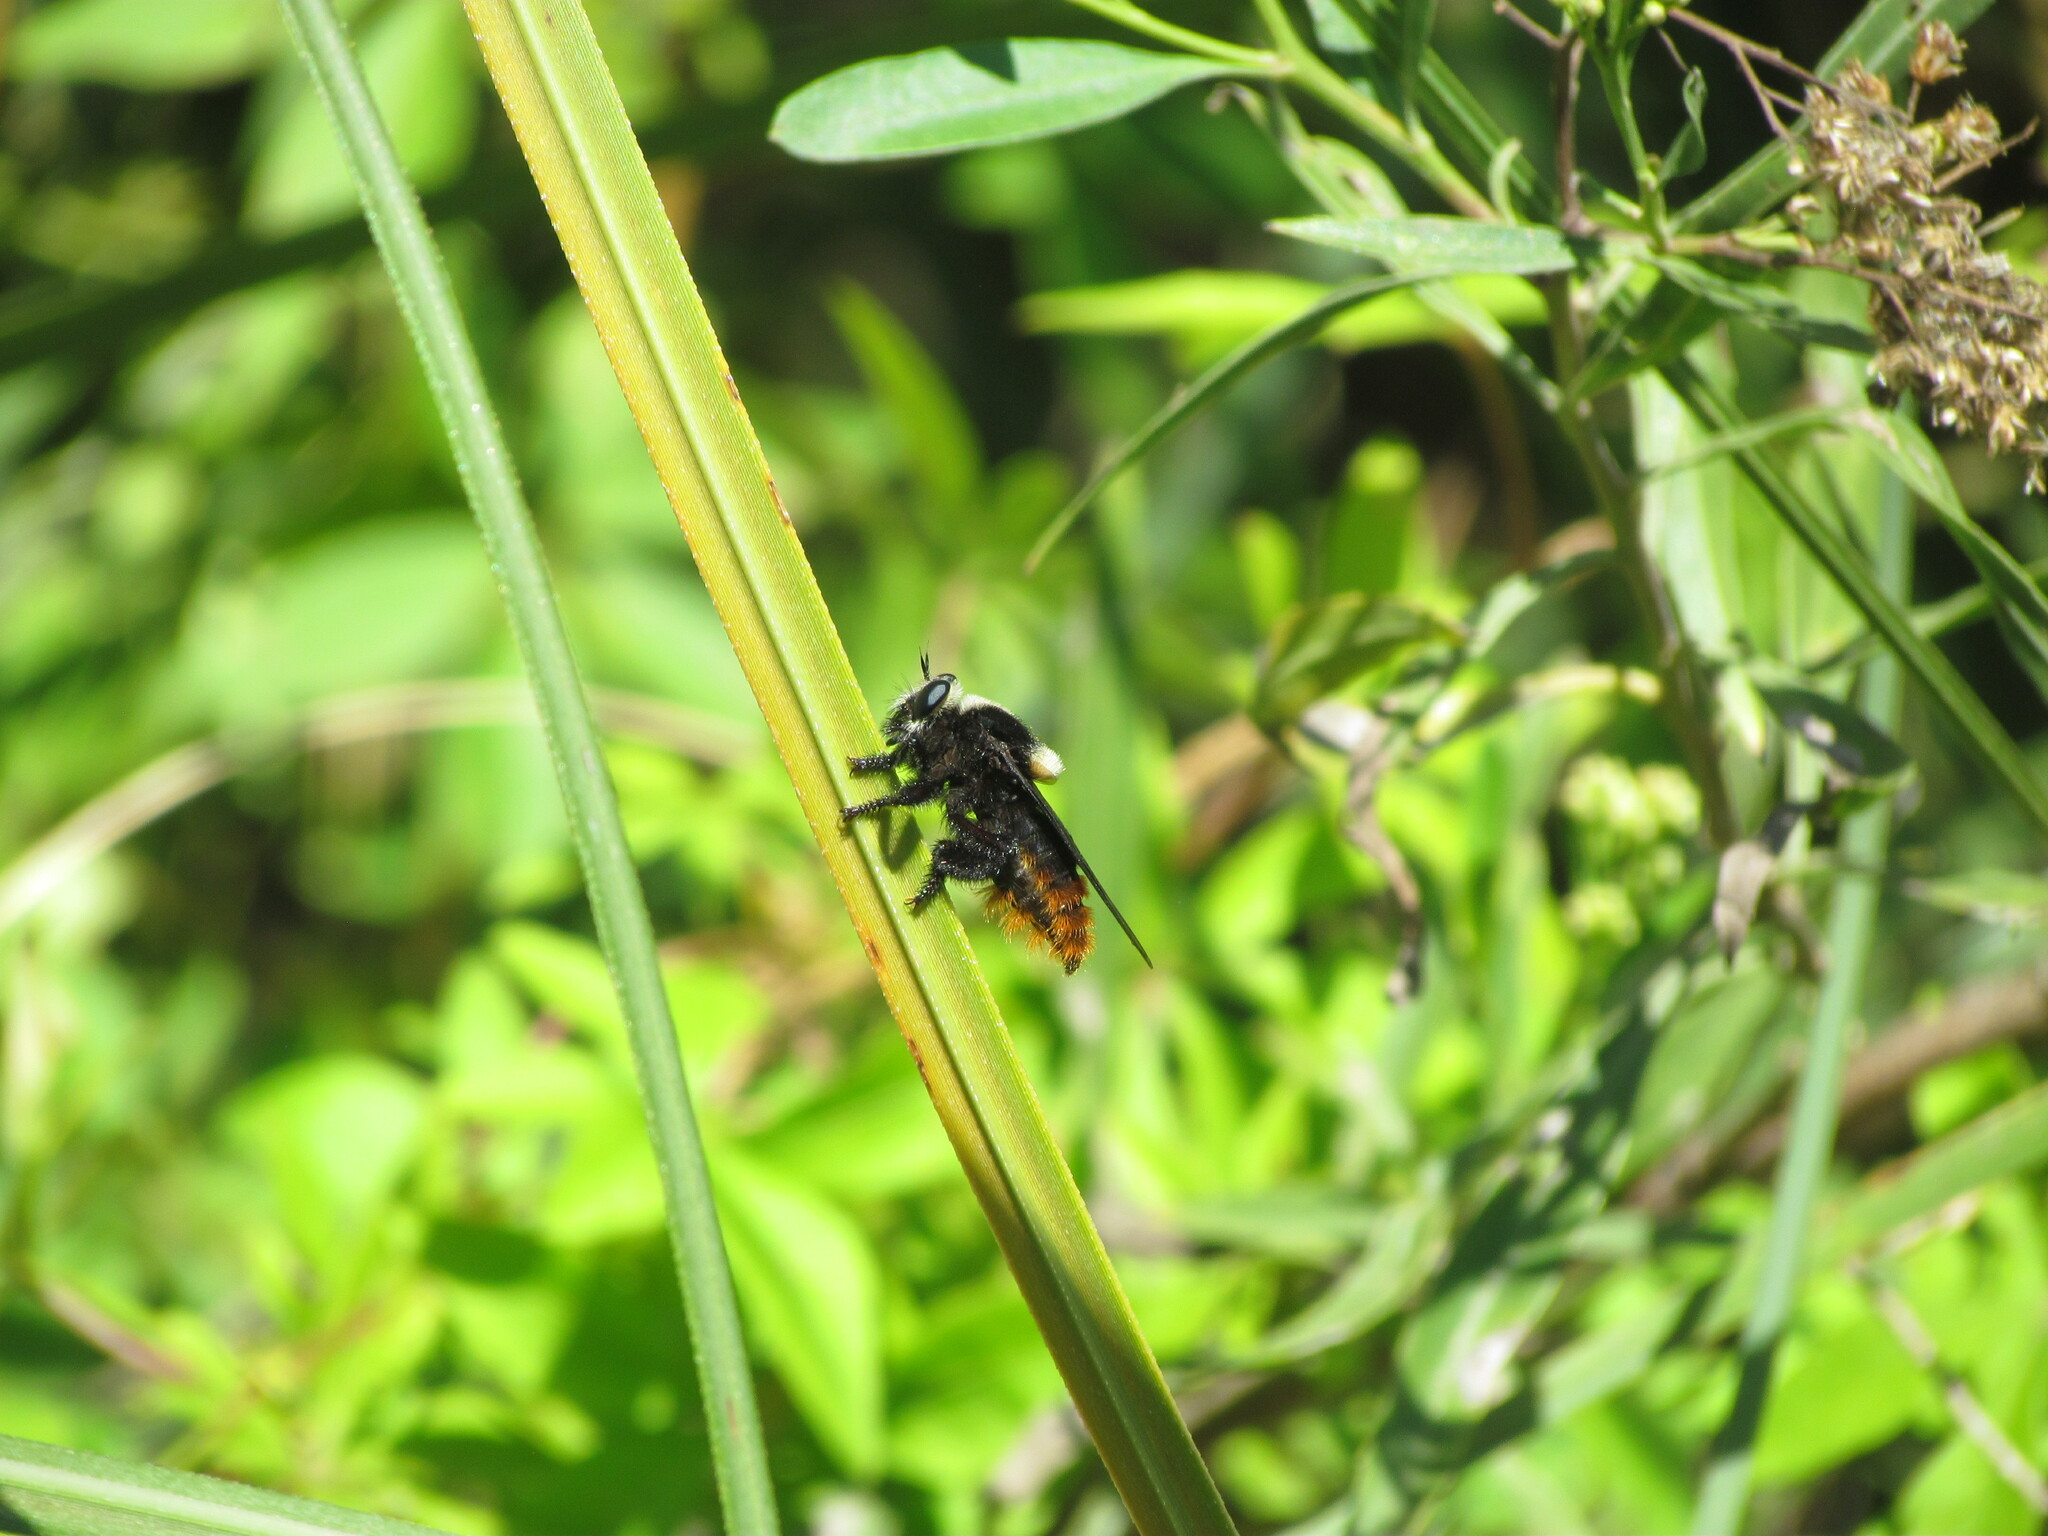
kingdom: Animalia
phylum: Arthropoda
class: Insecta
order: Diptera
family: Asilidae
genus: Mallophora
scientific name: Mallophora ruficauda
